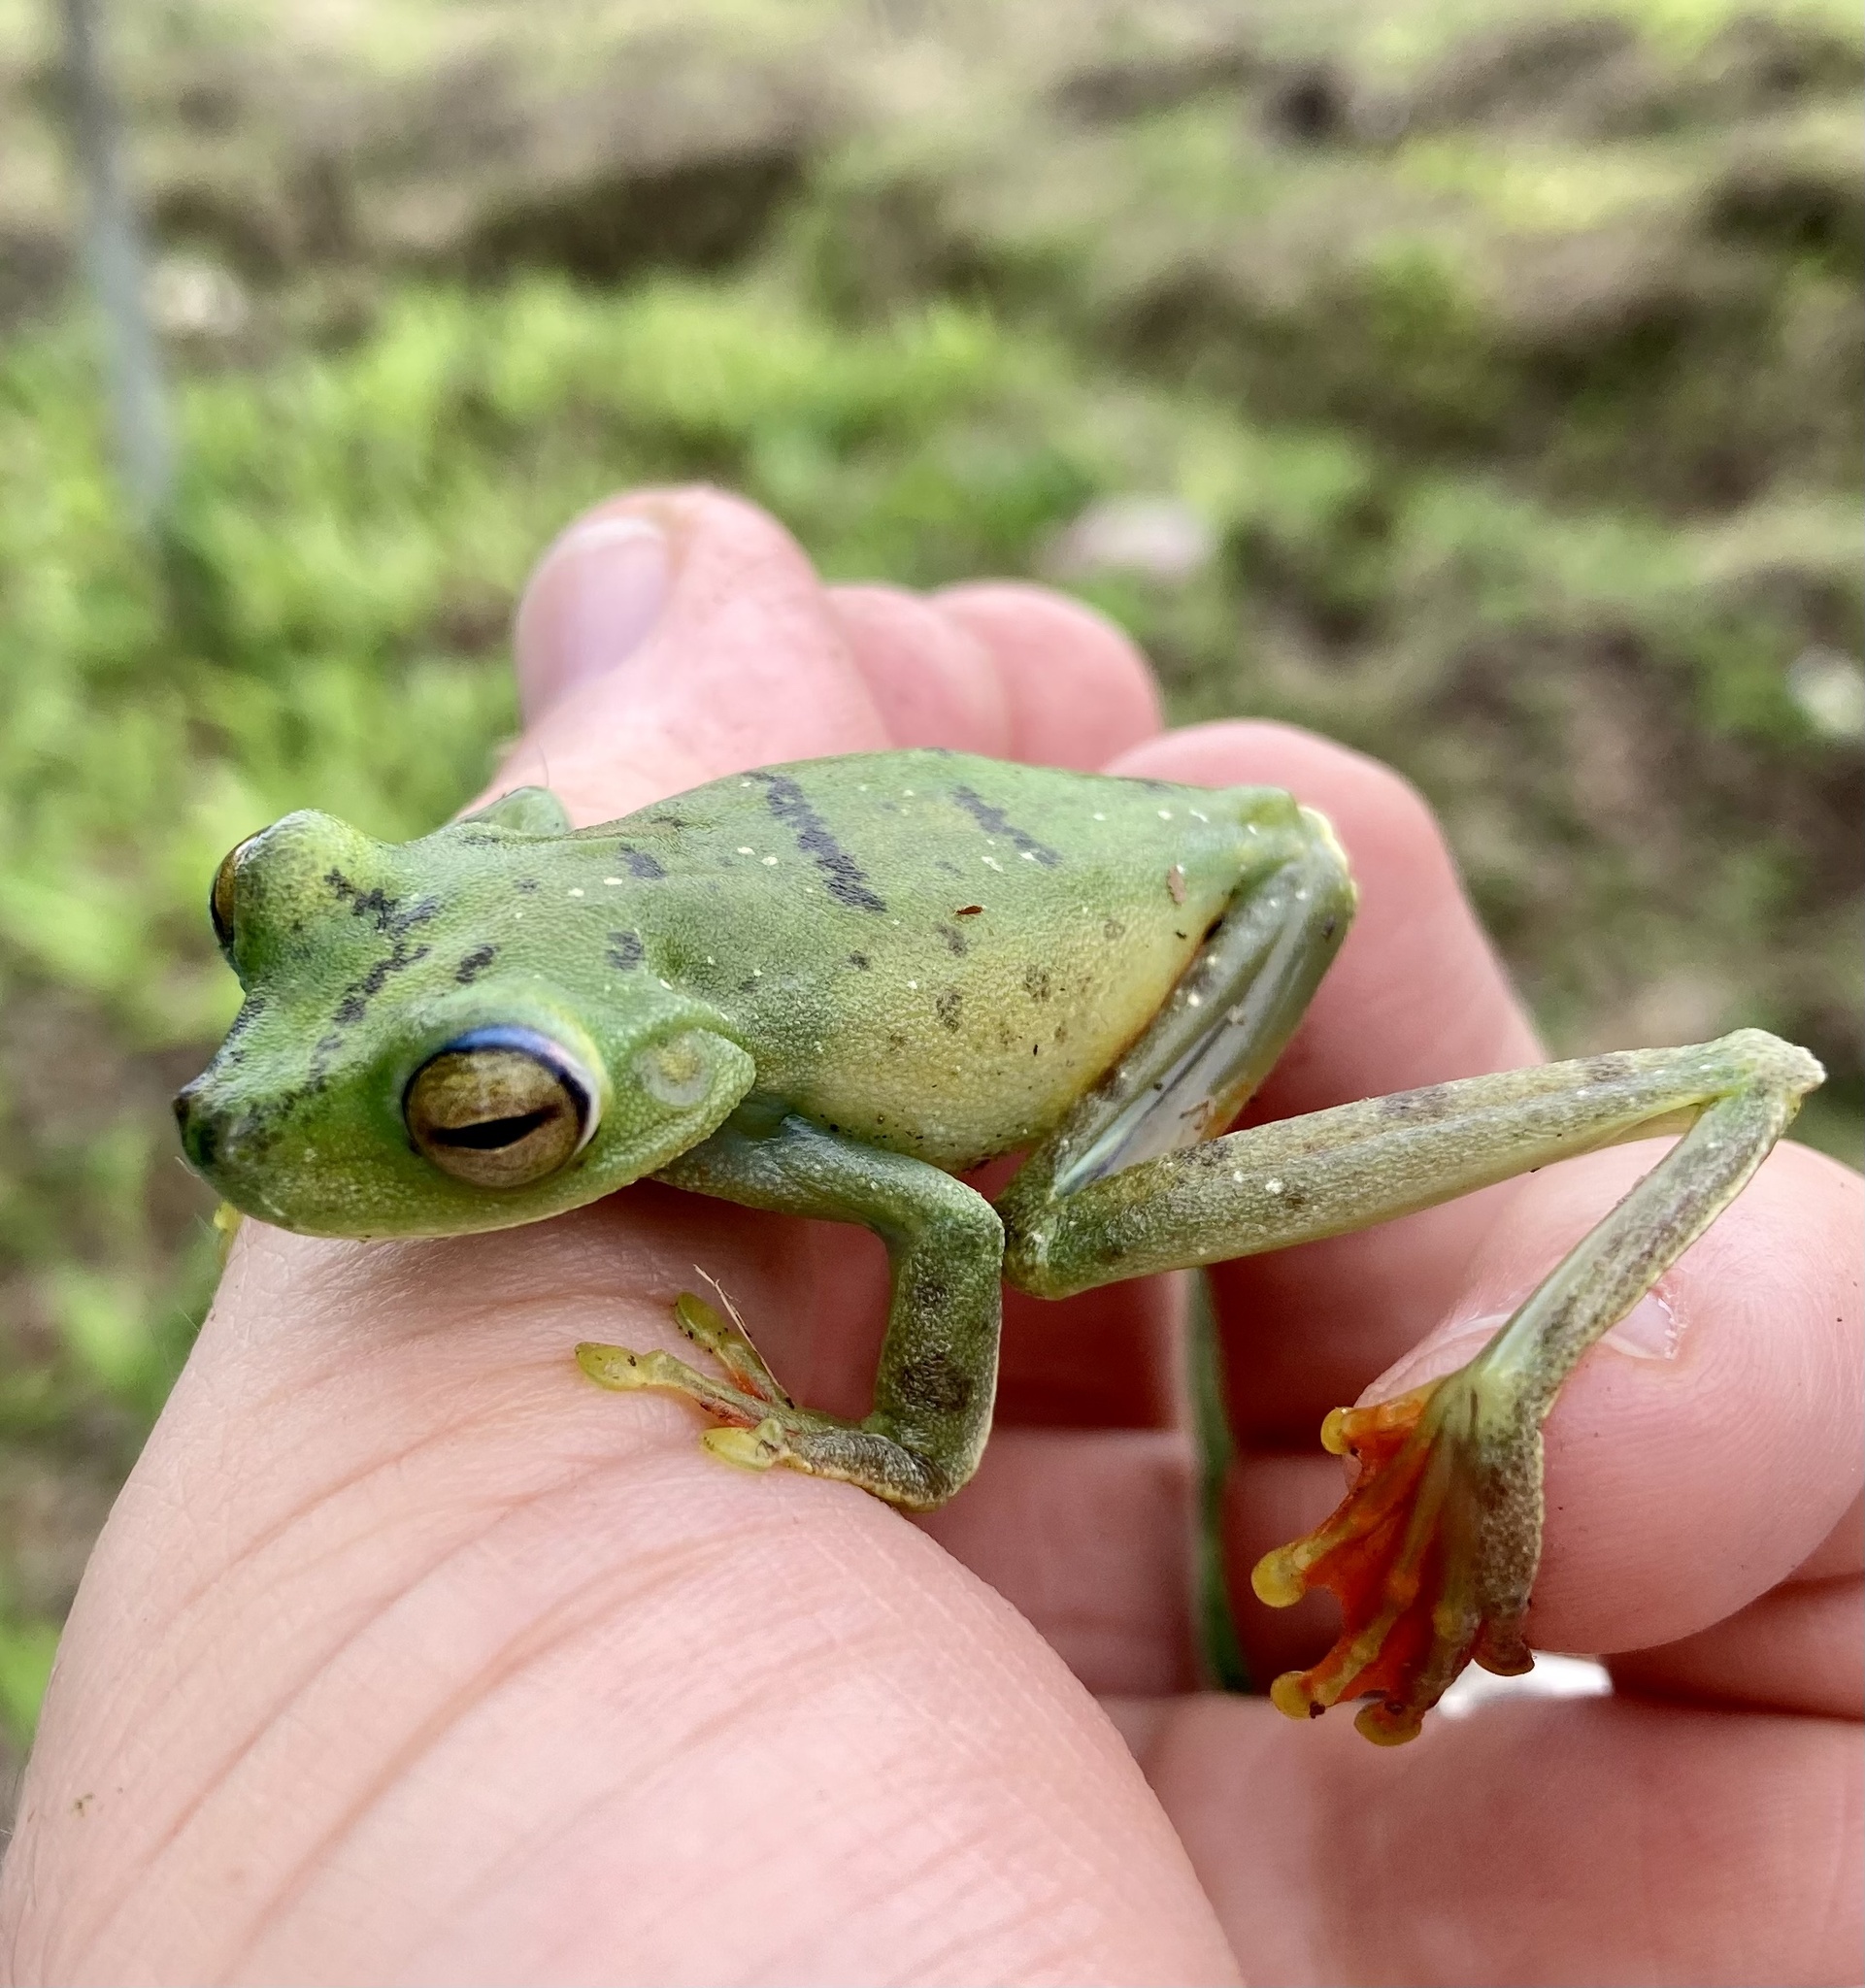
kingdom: Animalia
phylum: Chordata
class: Amphibia
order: Anura
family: Hylidae
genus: Boana
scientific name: Boana rufitela
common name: Canal zone treefrog
